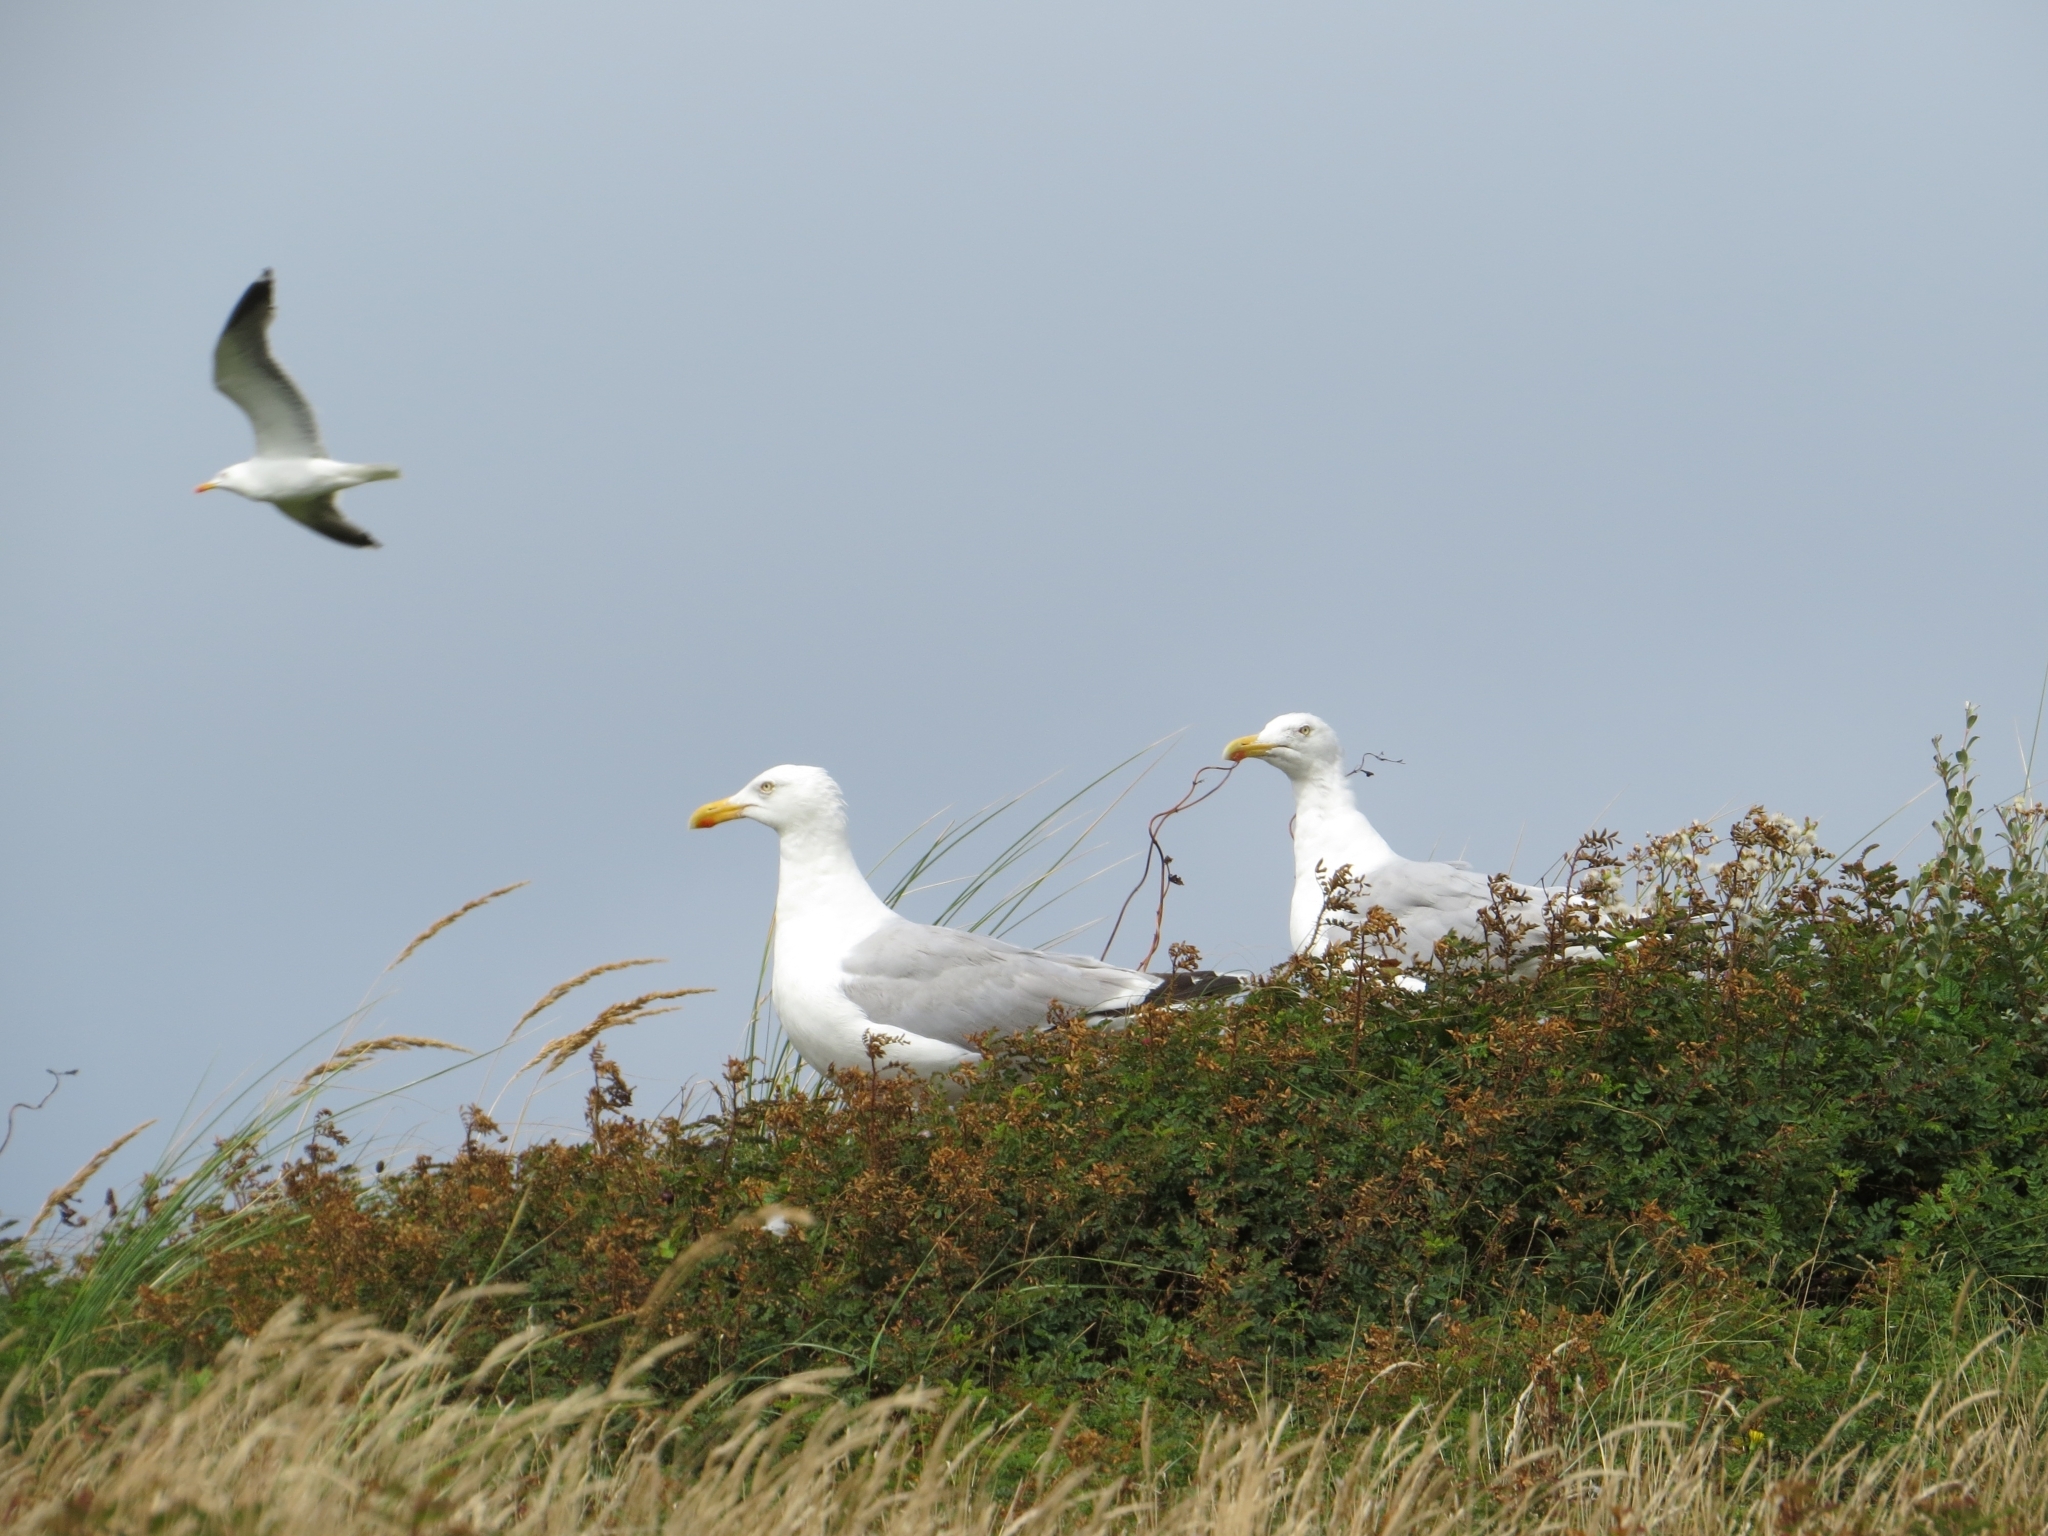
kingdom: Animalia
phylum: Chordata
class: Aves
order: Charadriiformes
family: Laridae
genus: Larus
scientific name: Larus fuscus
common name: Lesser black-backed gull
